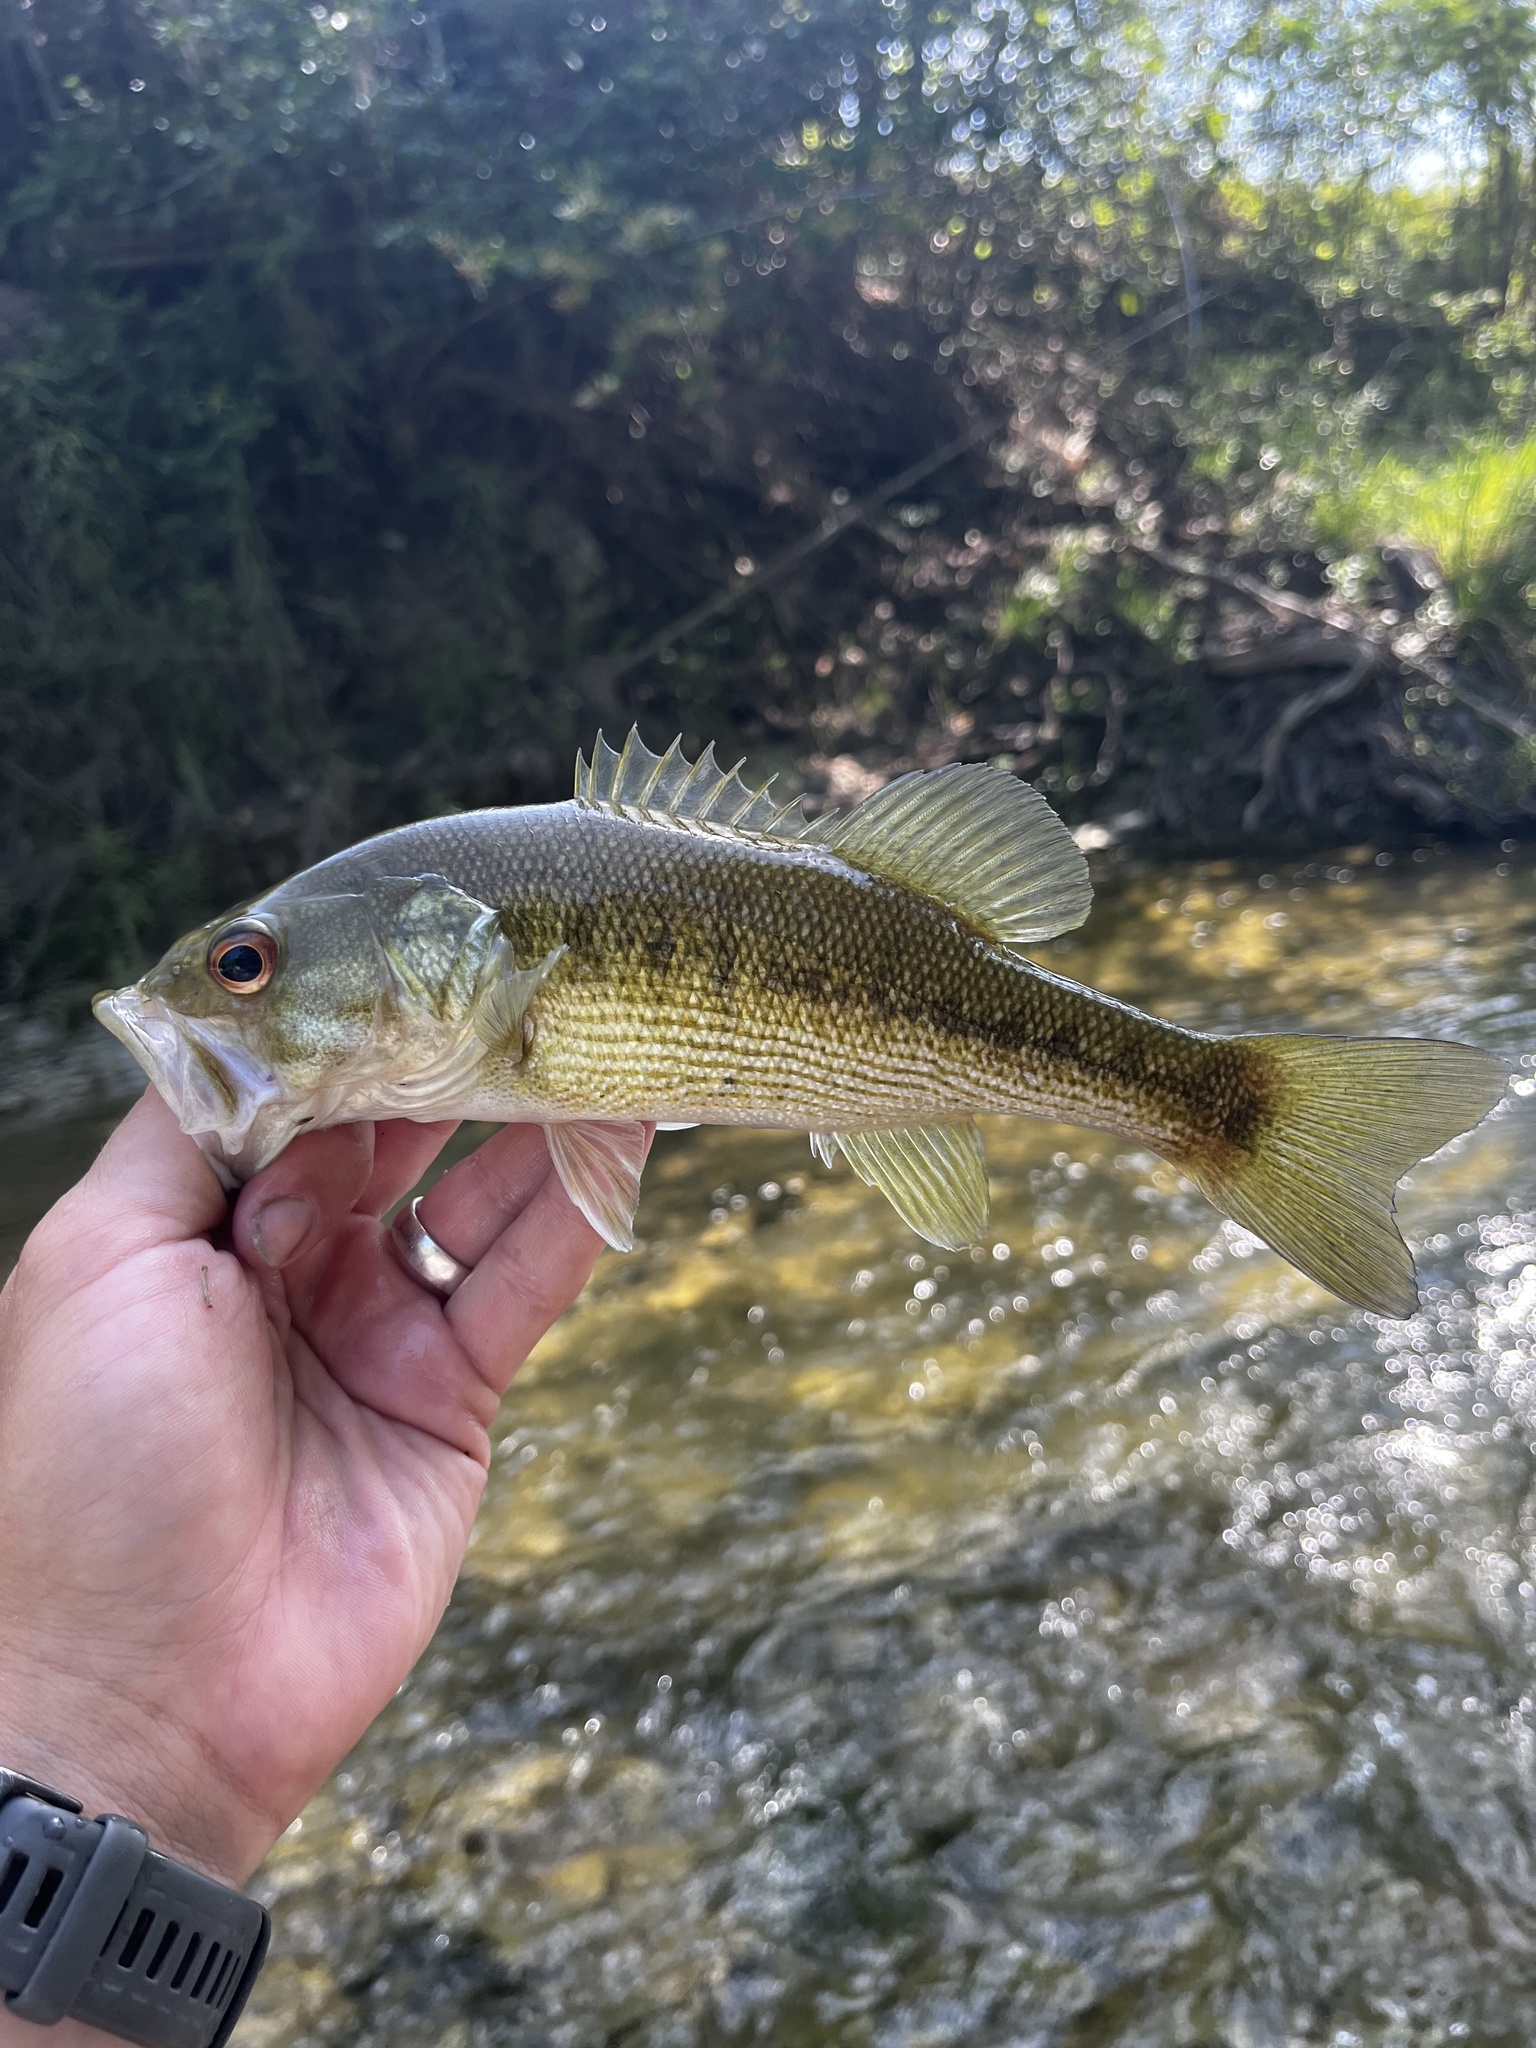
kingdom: Animalia
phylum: Chordata
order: Perciformes
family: Centrarchidae
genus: Micropterus
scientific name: Micropterus treculii
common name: Guadalupe bass
